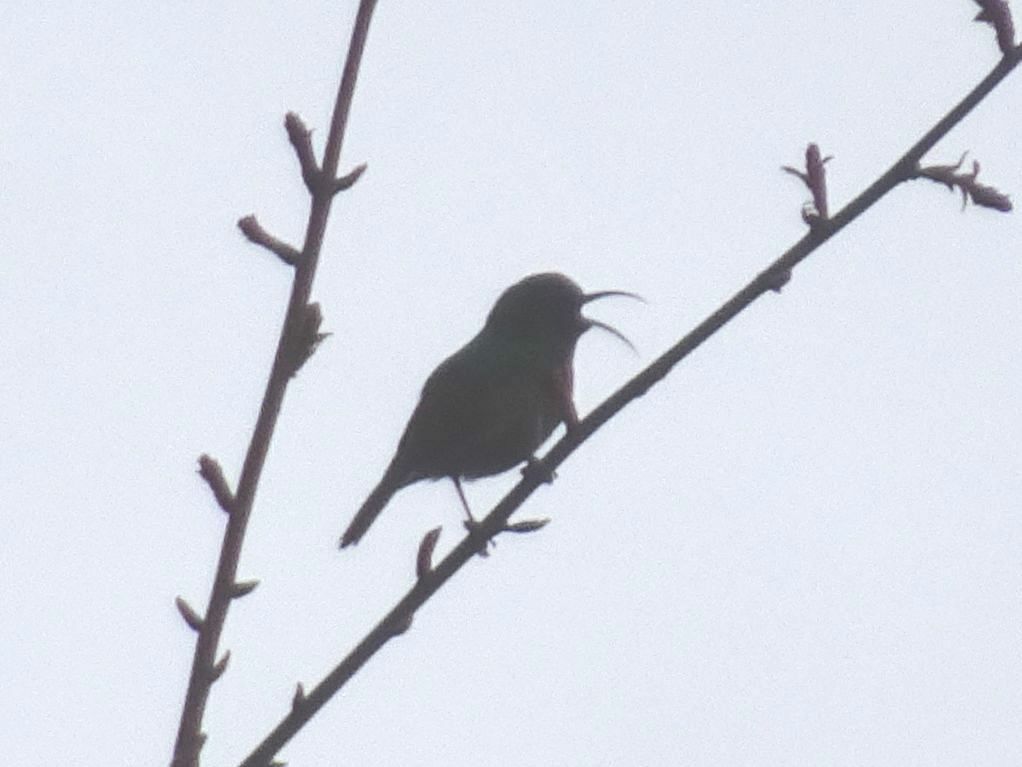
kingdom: Animalia
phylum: Chordata
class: Aves
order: Passeriformes
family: Nectariniidae
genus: Cinnyris
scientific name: Cinnyris chalybeus
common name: Southern double-collared sunbird
